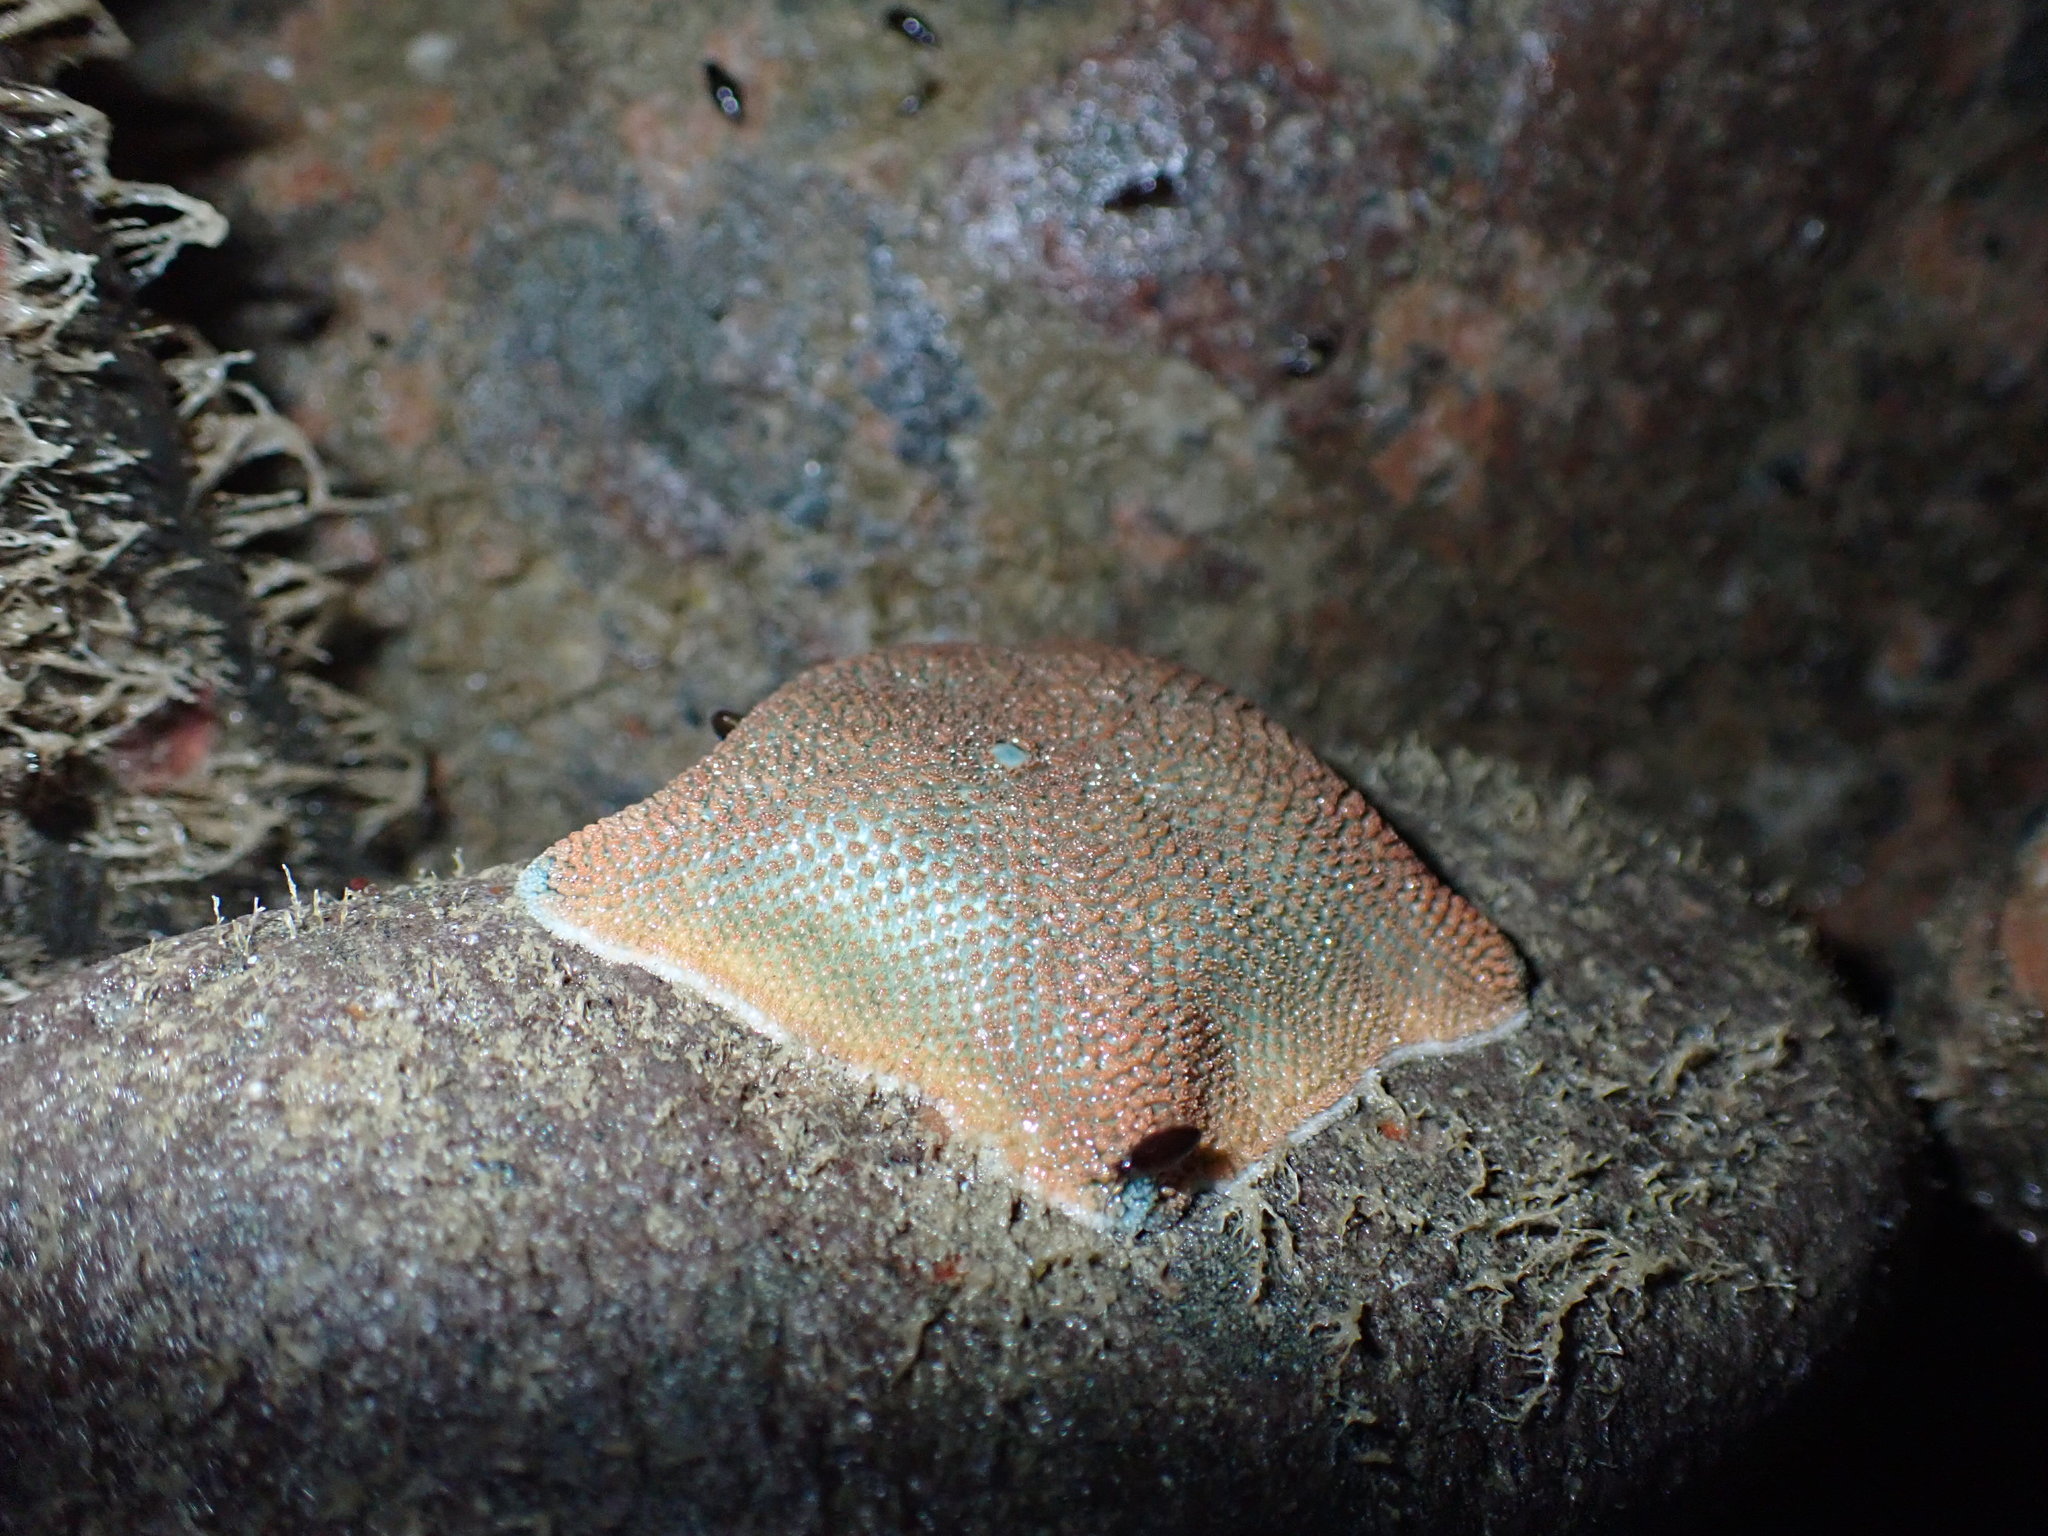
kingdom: Animalia
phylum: Echinodermata
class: Asteroidea
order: Valvatida
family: Asterinidae
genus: Patiriella
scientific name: Patiriella regularis
